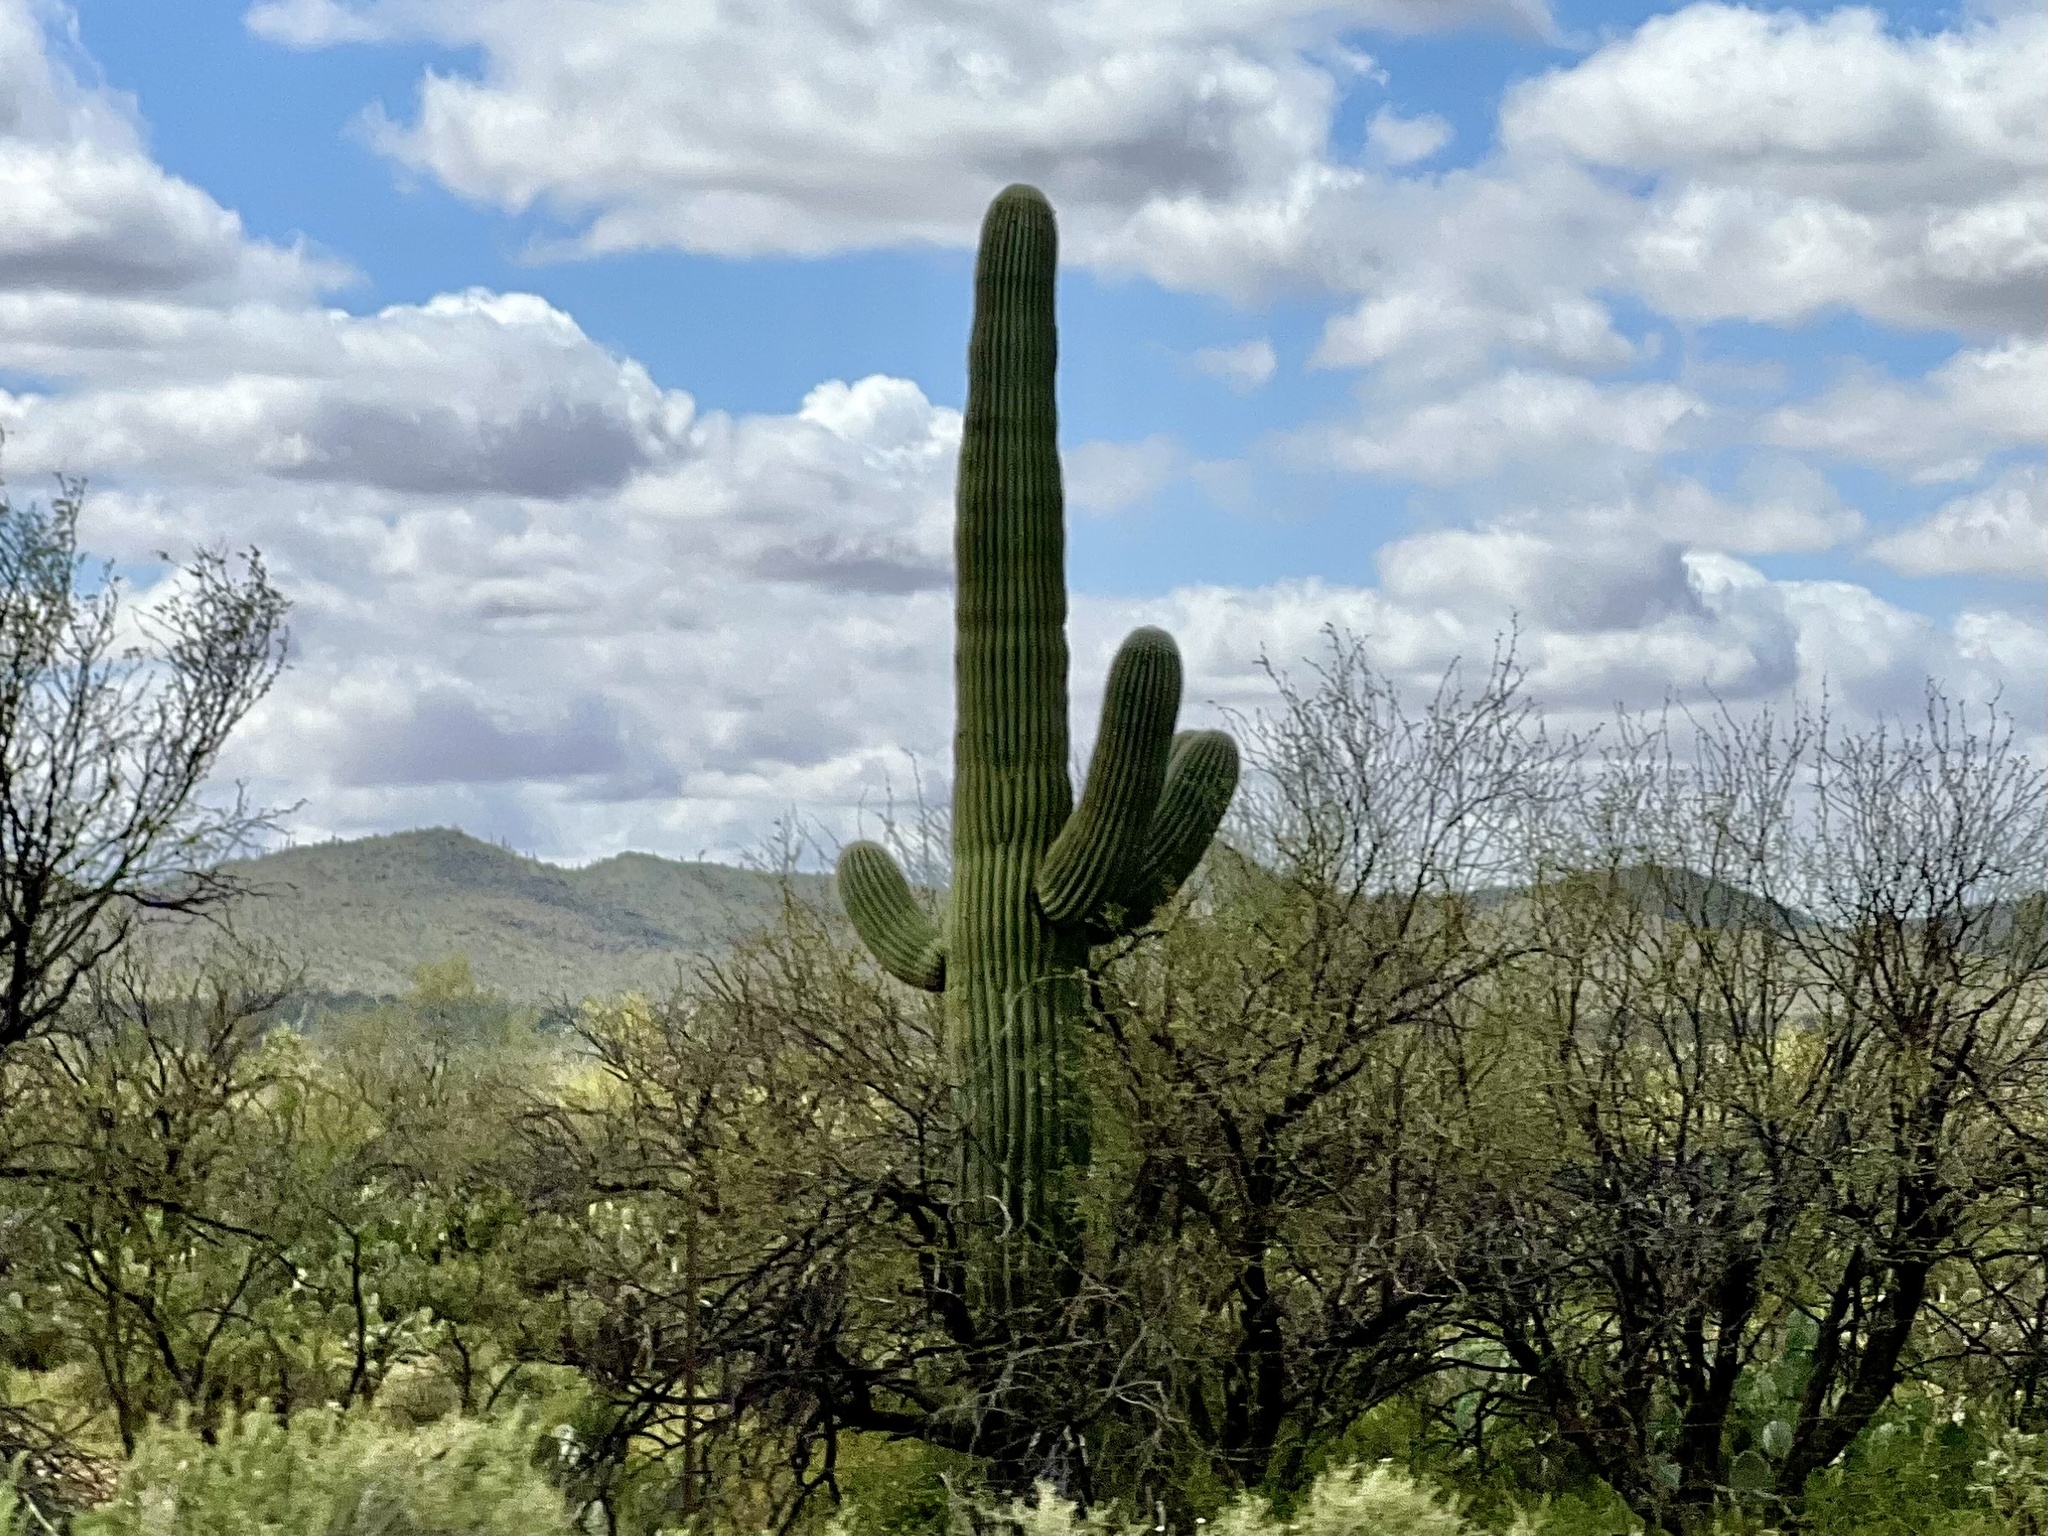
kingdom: Plantae
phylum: Tracheophyta
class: Magnoliopsida
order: Caryophyllales
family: Cactaceae
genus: Carnegiea
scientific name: Carnegiea gigantea
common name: Saguaro
